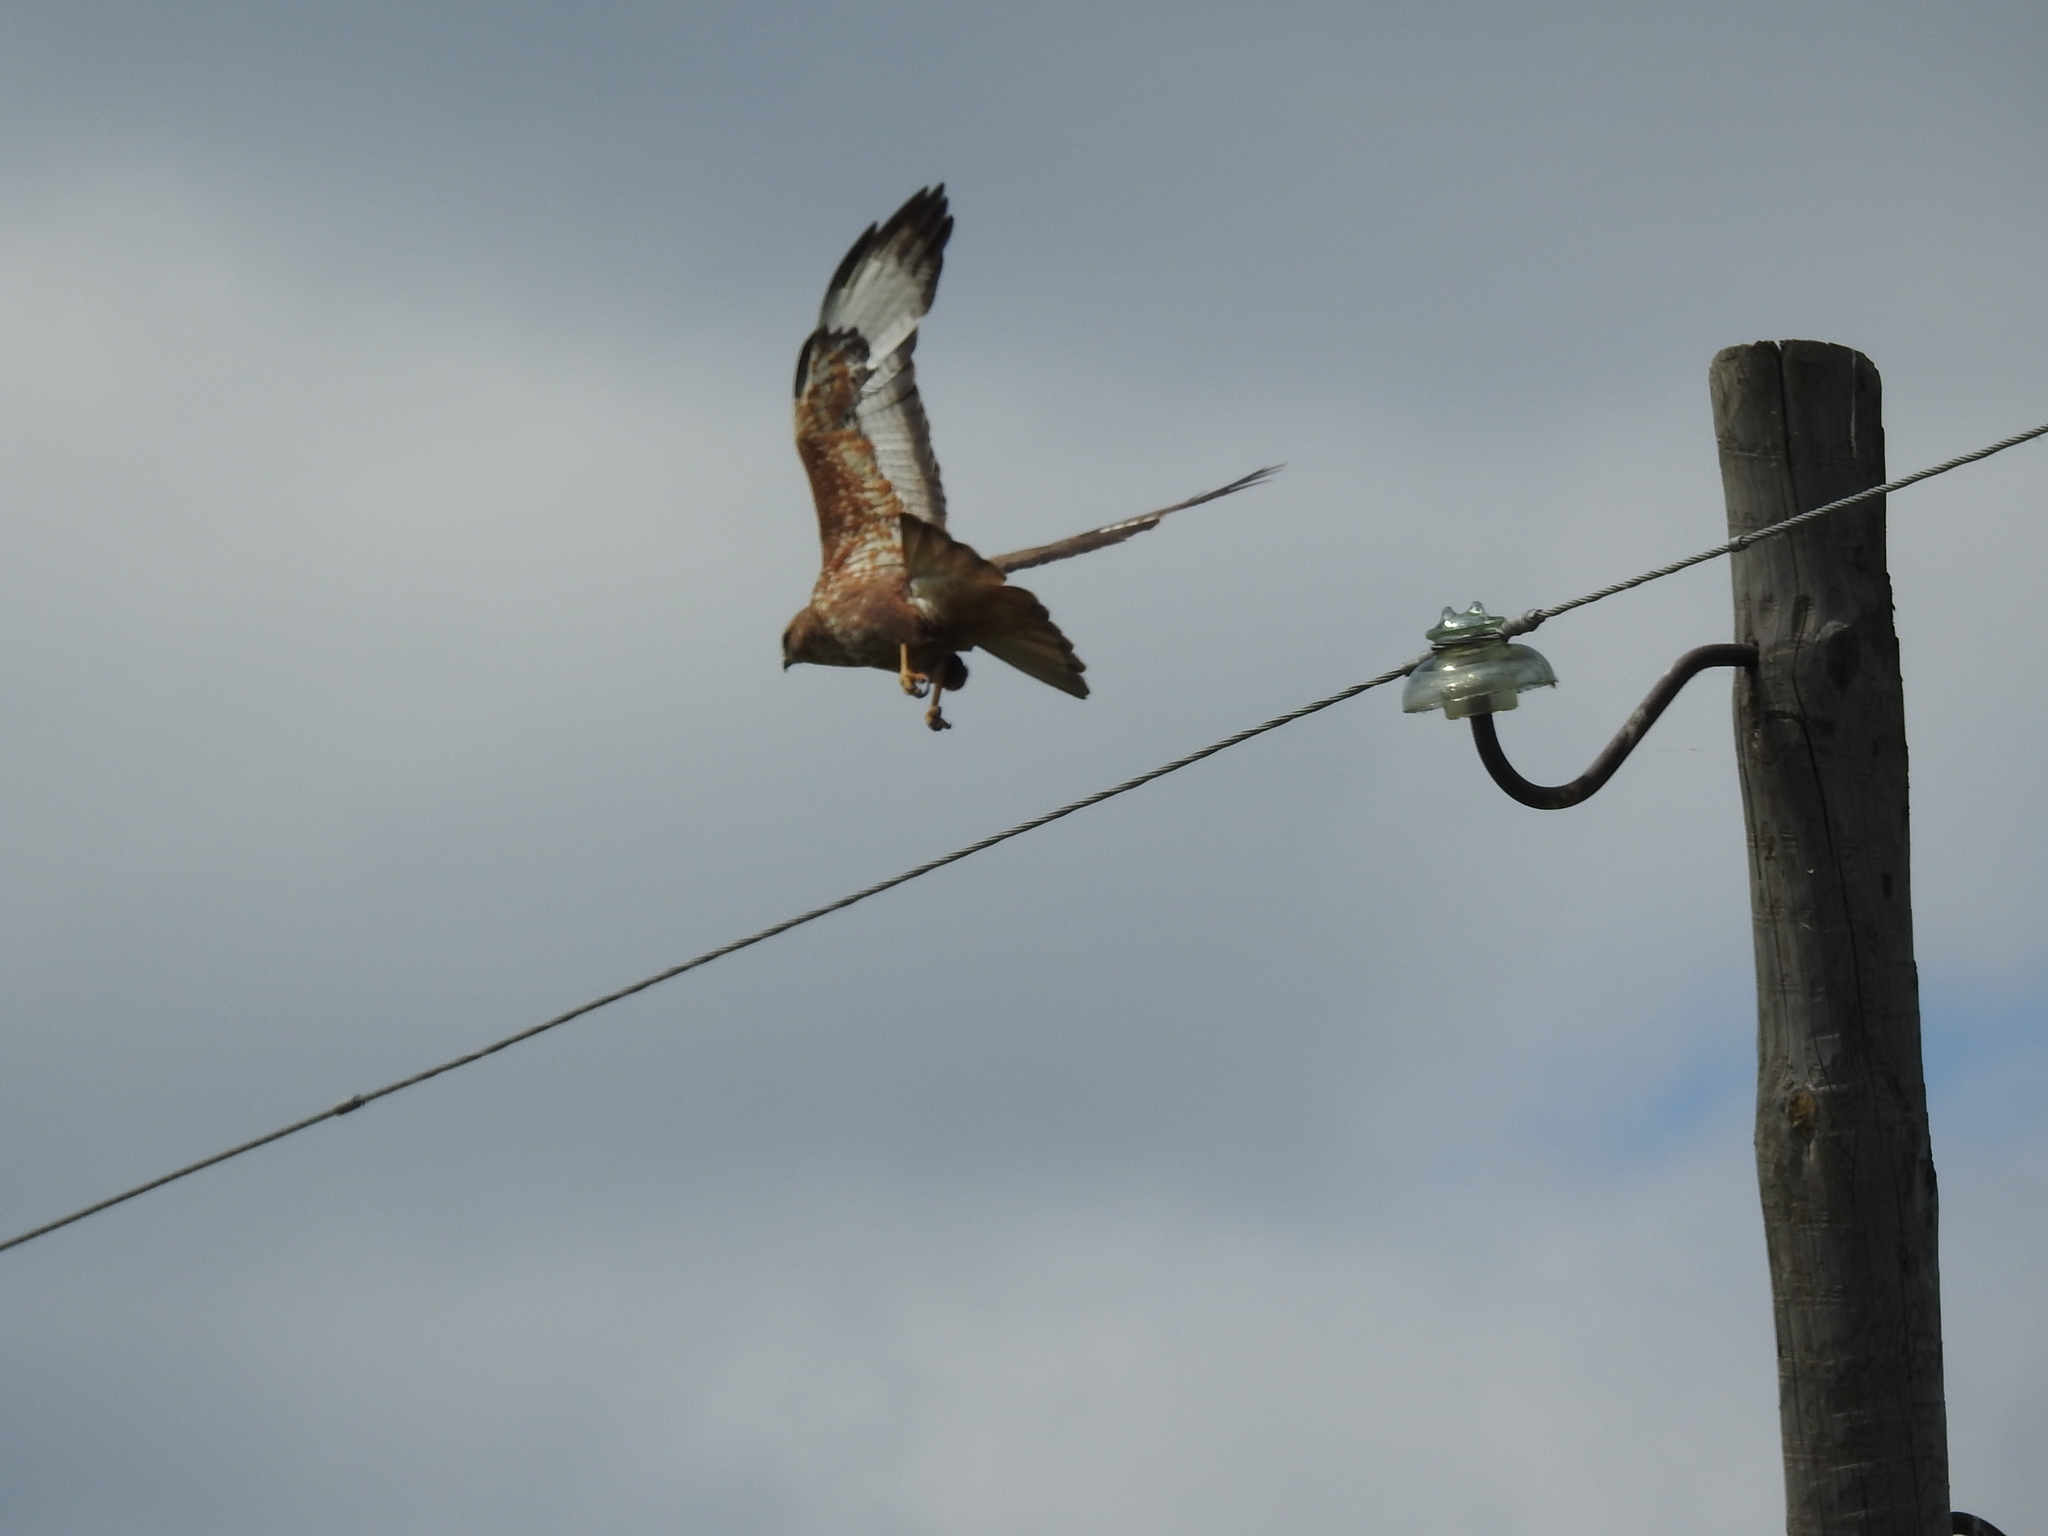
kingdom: Animalia
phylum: Chordata
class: Aves
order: Accipitriformes
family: Accipitridae
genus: Buteo
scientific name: Buteo buteo
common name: Common buzzard
